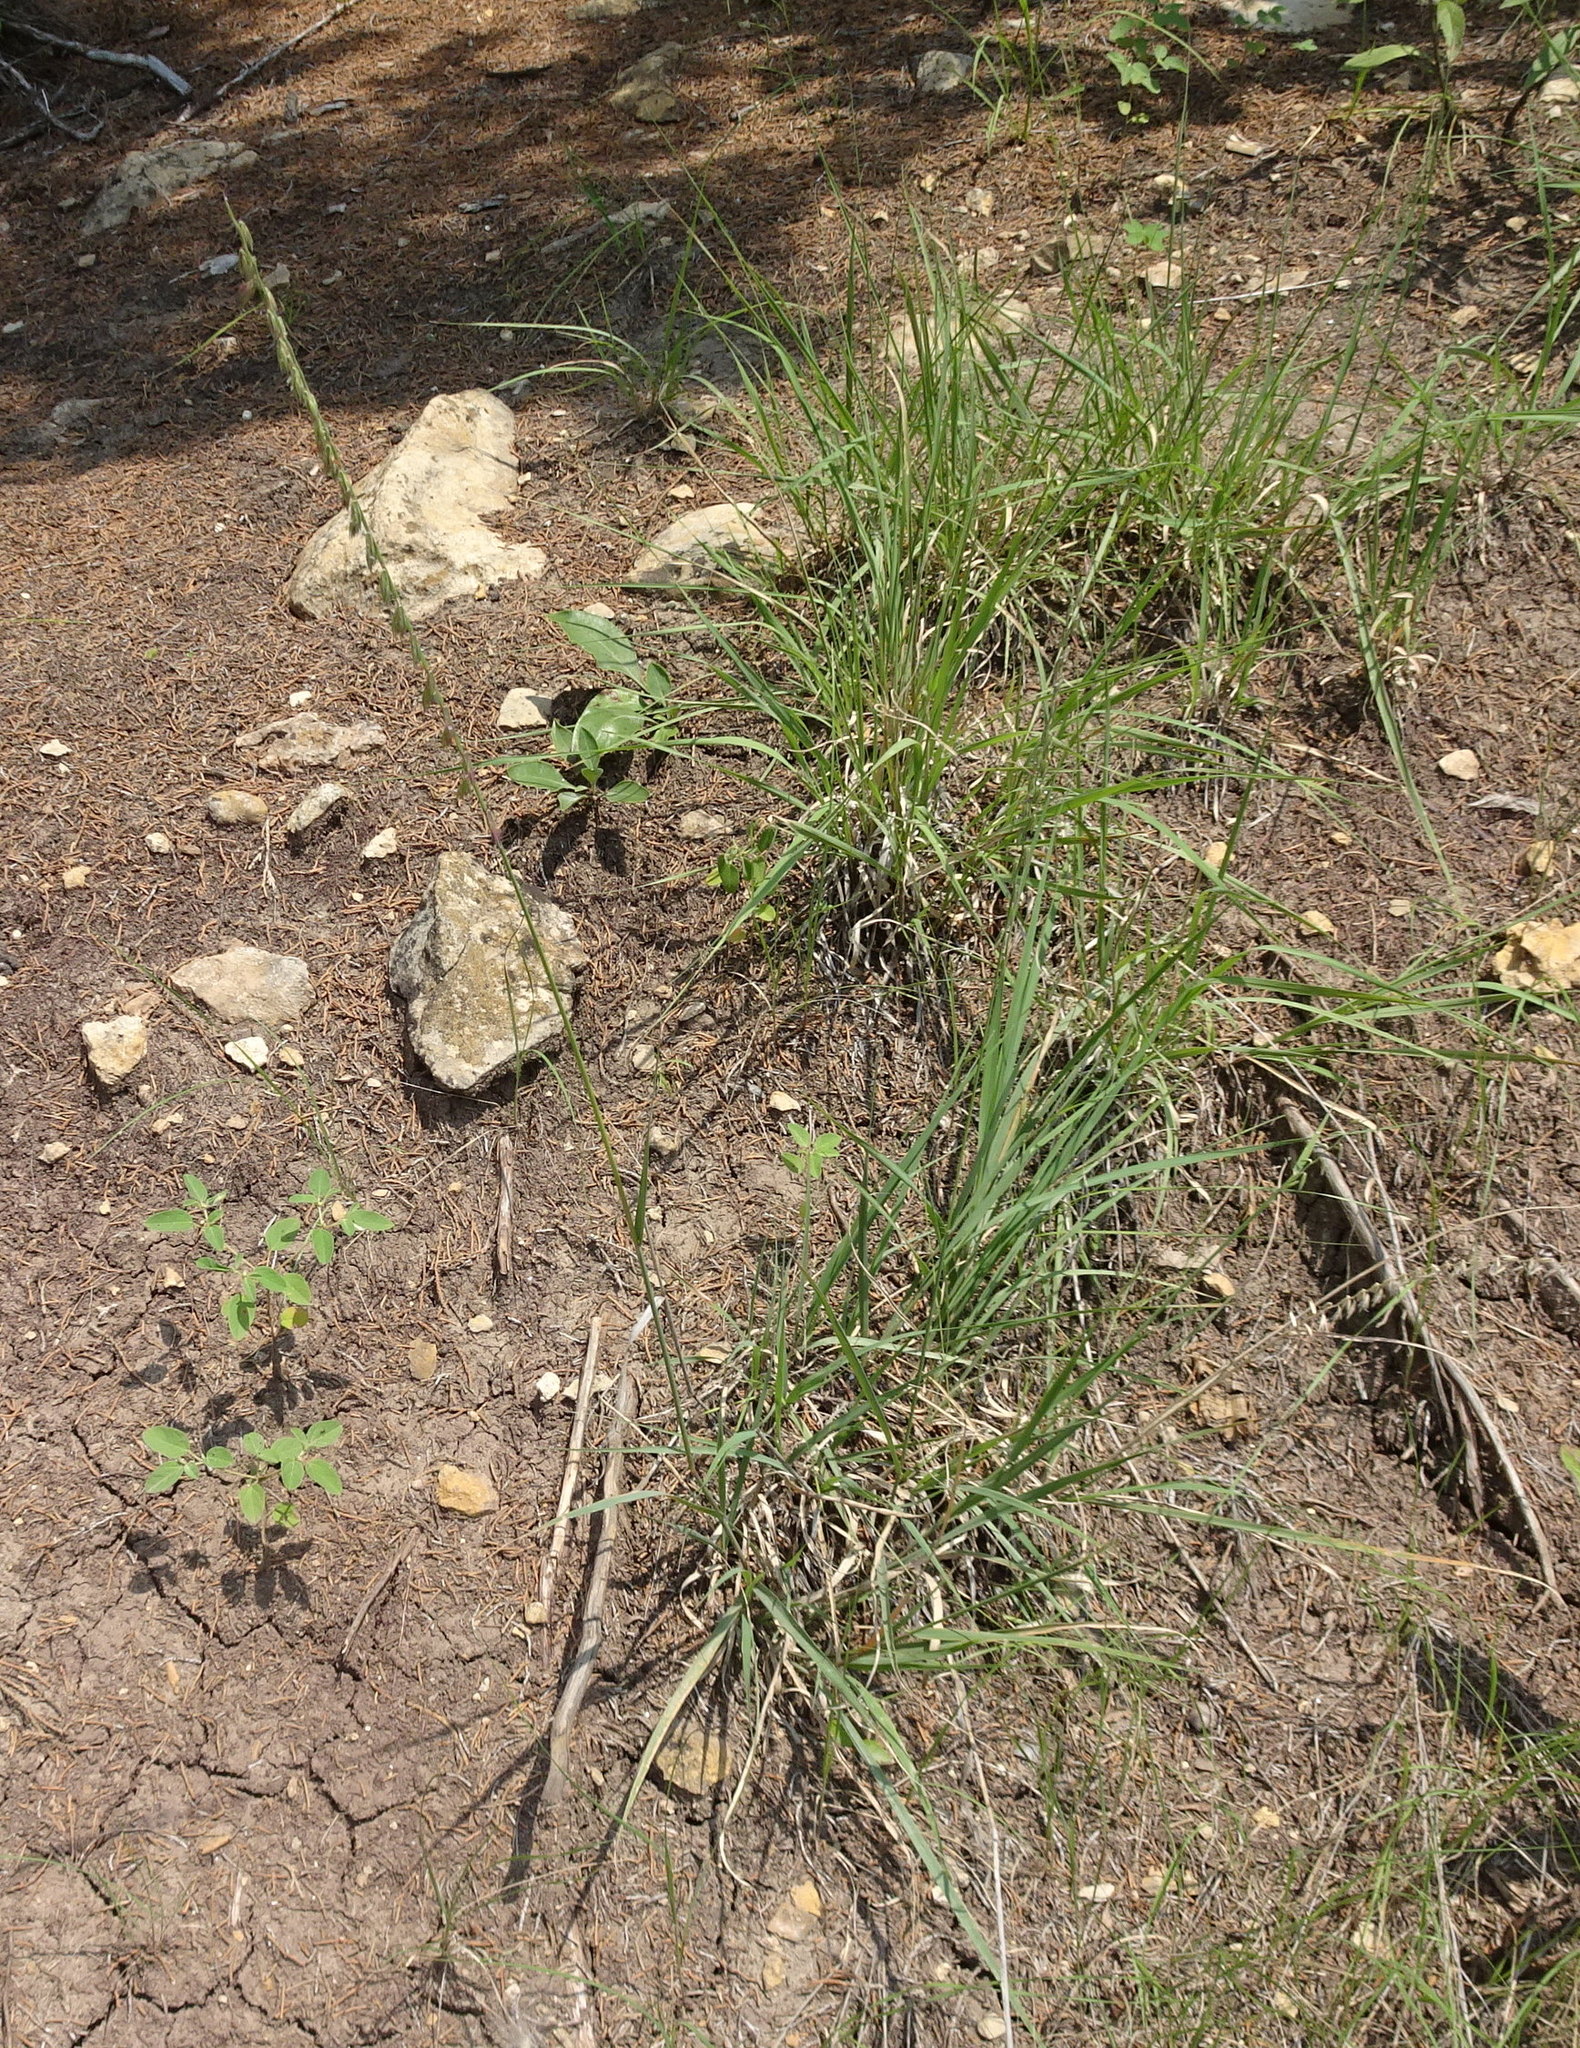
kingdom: Plantae
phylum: Tracheophyta
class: Liliopsida
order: Poales
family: Poaceae
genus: Bouteloua
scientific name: Bouteloua curtipendula
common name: Side-oats grama
